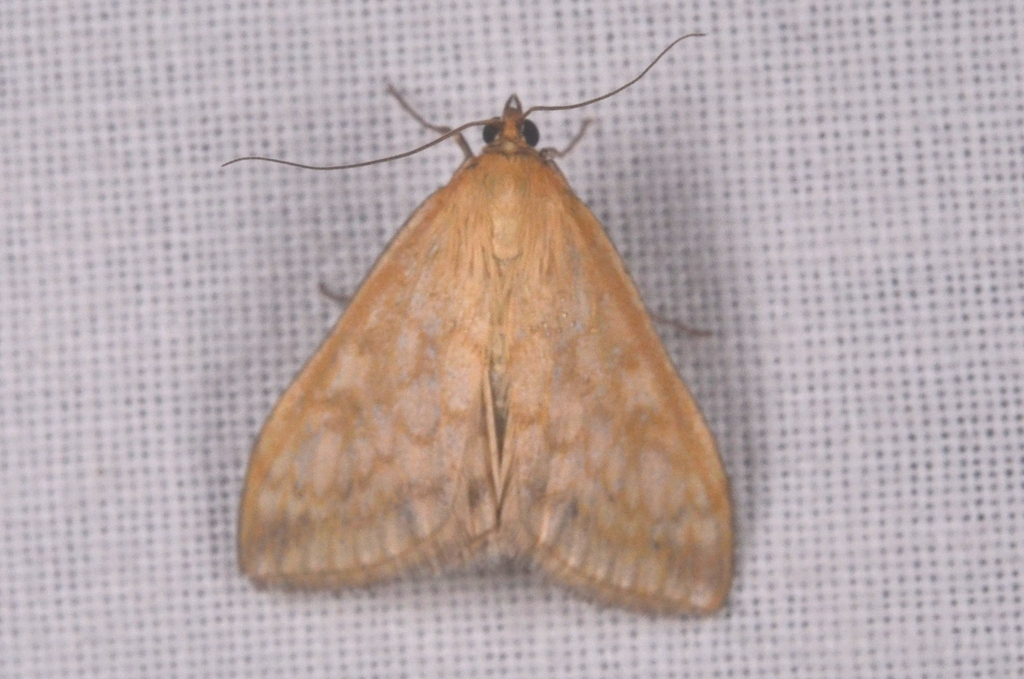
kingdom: Animalia
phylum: Arthropoda
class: Insecta
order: Lepidoptera
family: Crambidae
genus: Sitochroa
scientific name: Sitochroa verticalis
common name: Lesser pearl
